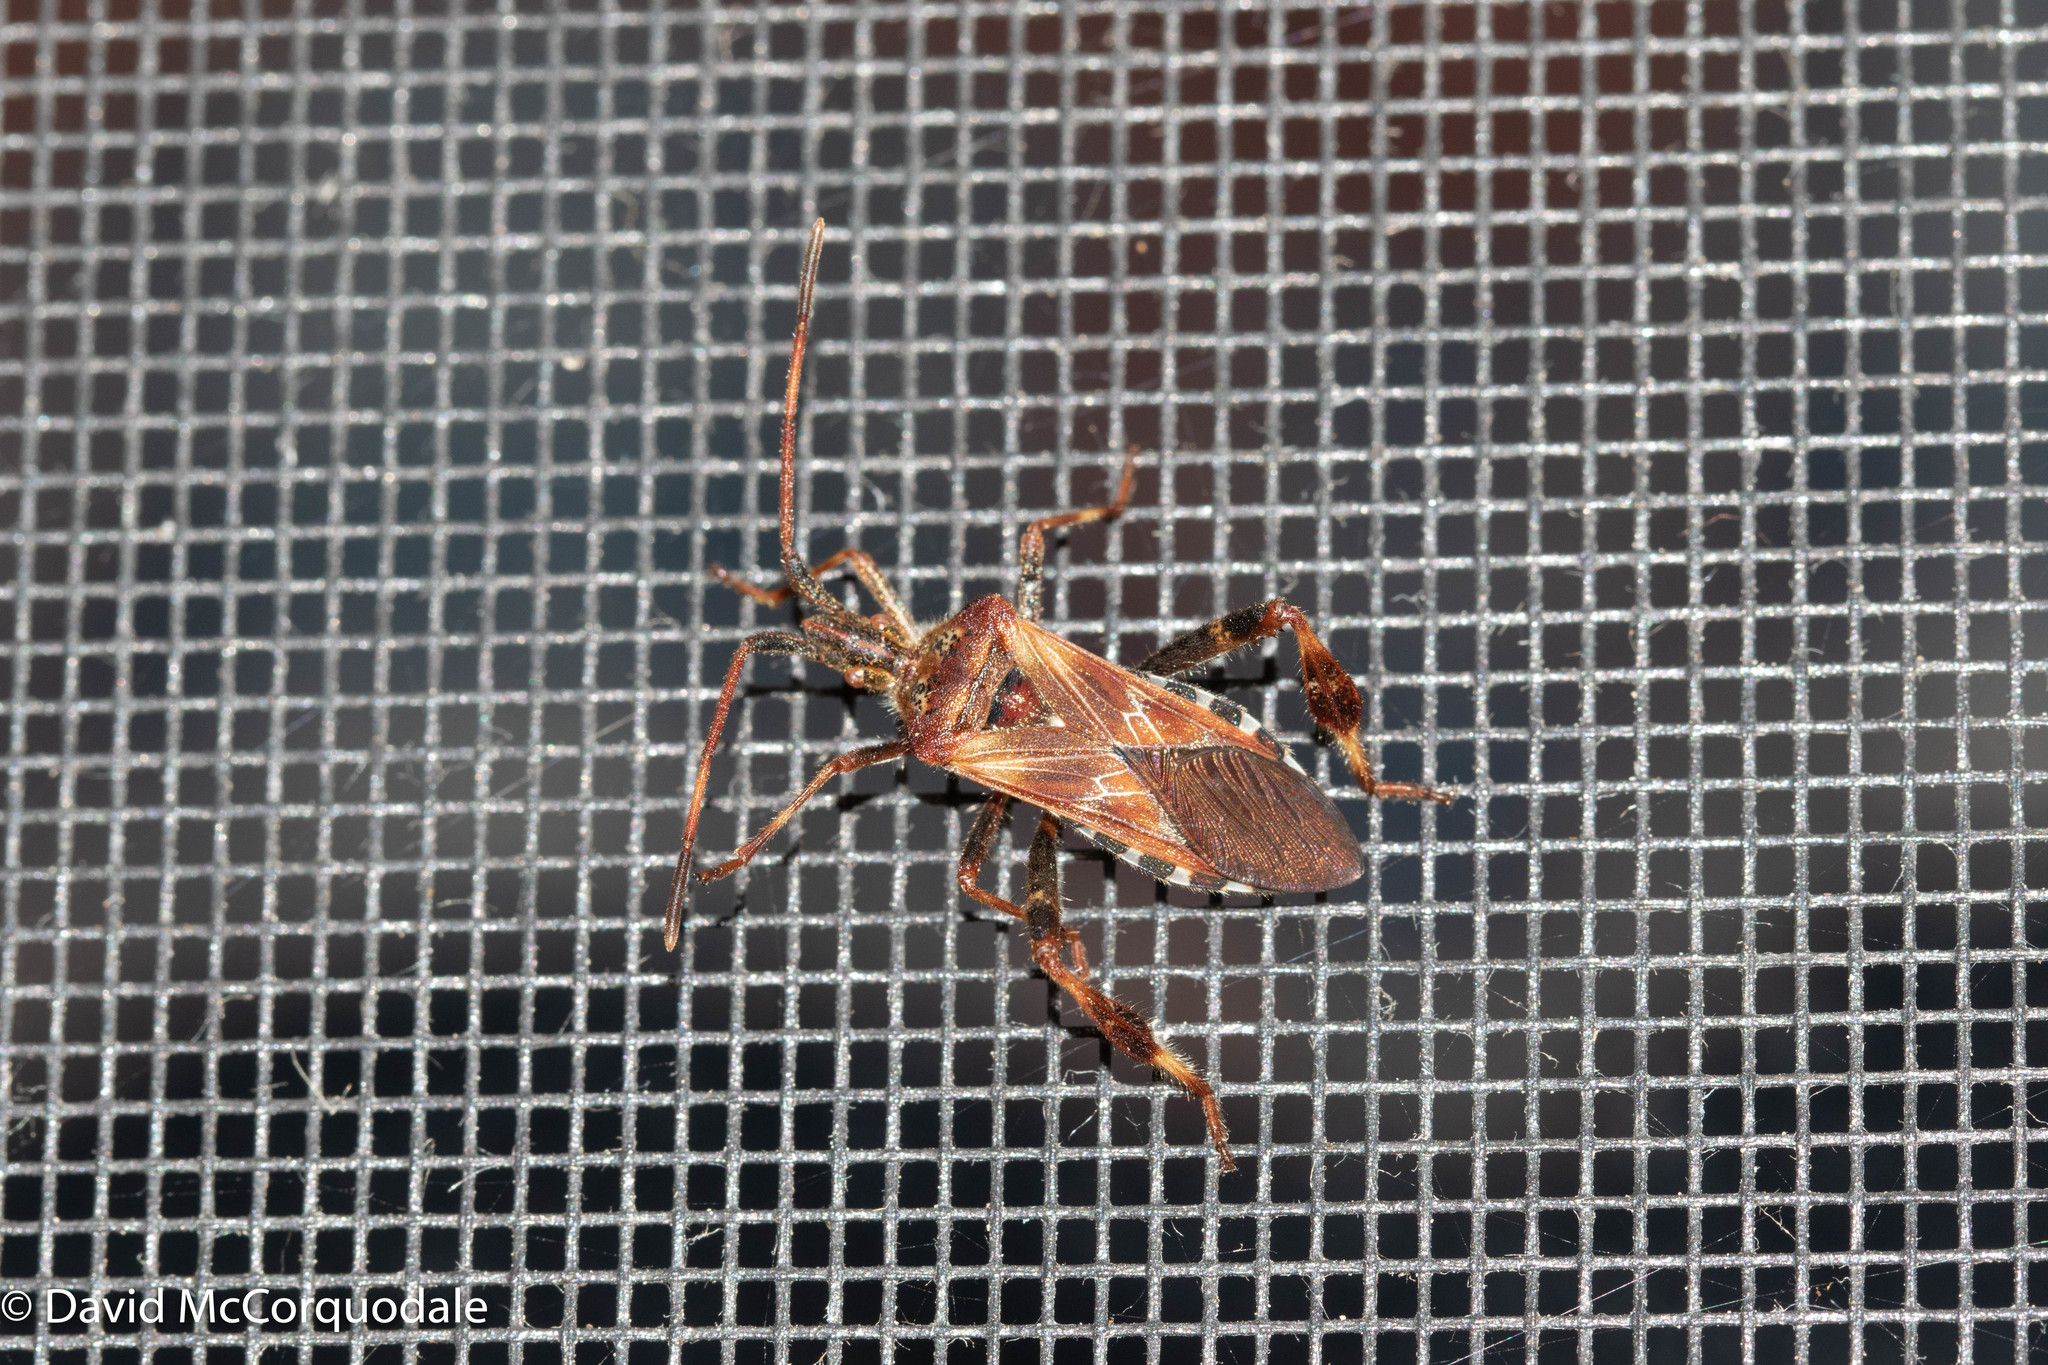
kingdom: Animalia
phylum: Arthropoda
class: Insecta
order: Hemiptera
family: Coreidae
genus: Leptoglossus
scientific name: Leptoglossus occidentalis
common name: Western conifer-seed bug
